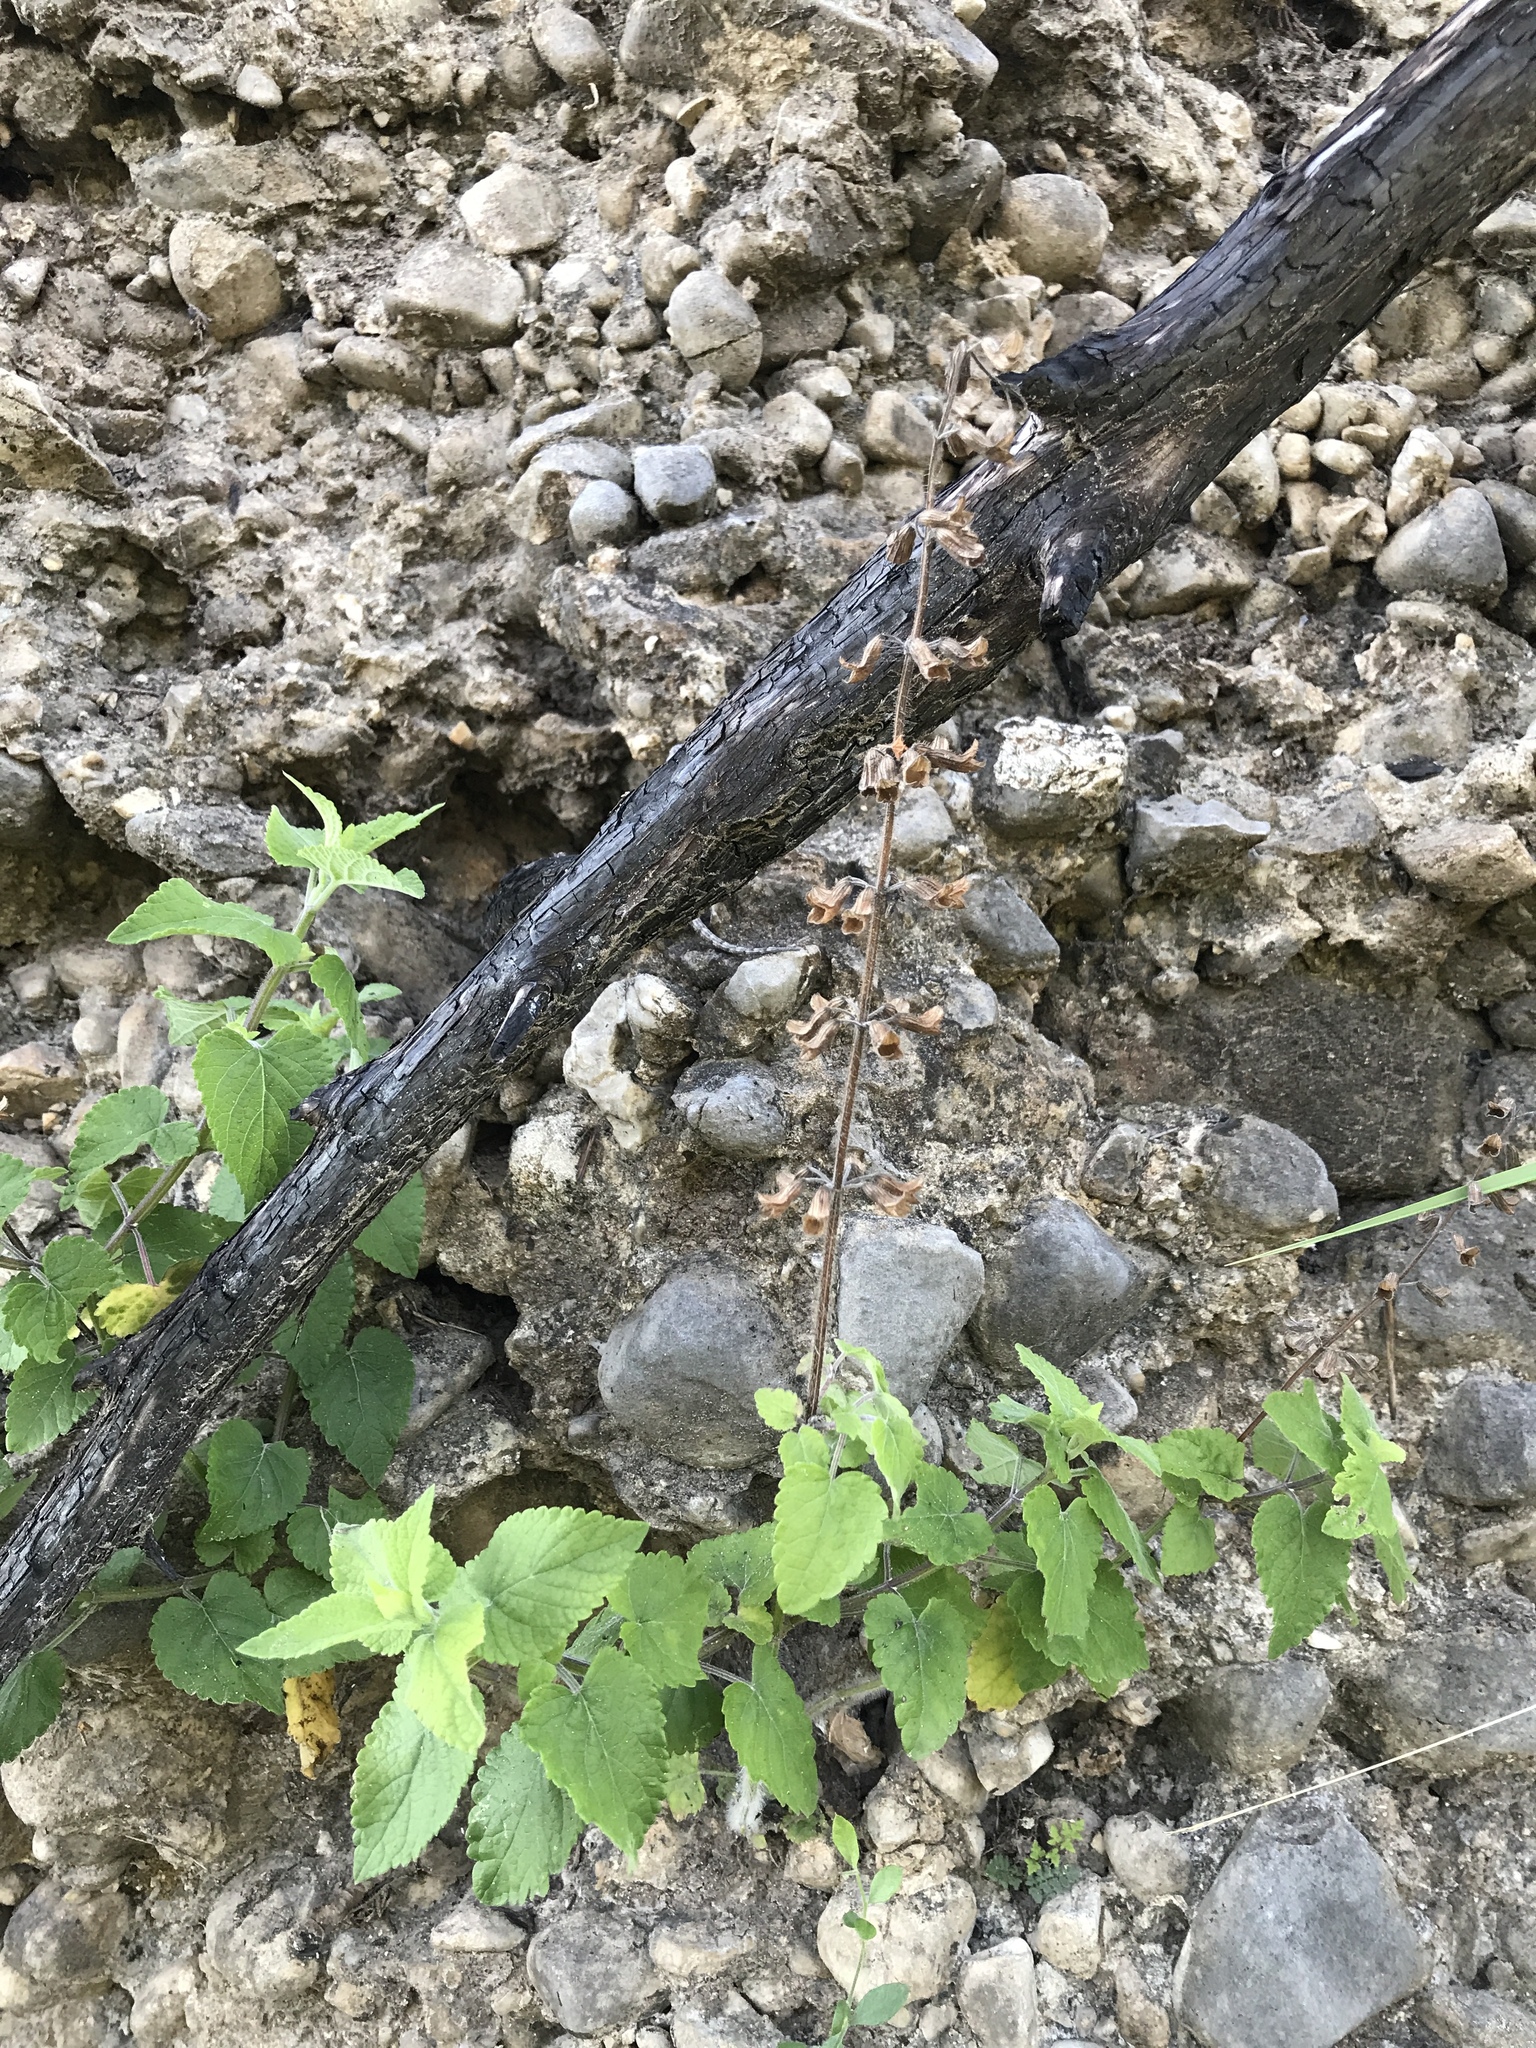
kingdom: Plantae
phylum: Tracheophyta
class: Magnoliopsida
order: Lamiales
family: Lamiaceae
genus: Salvia
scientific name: Salvia coccinea
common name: Blood sage
